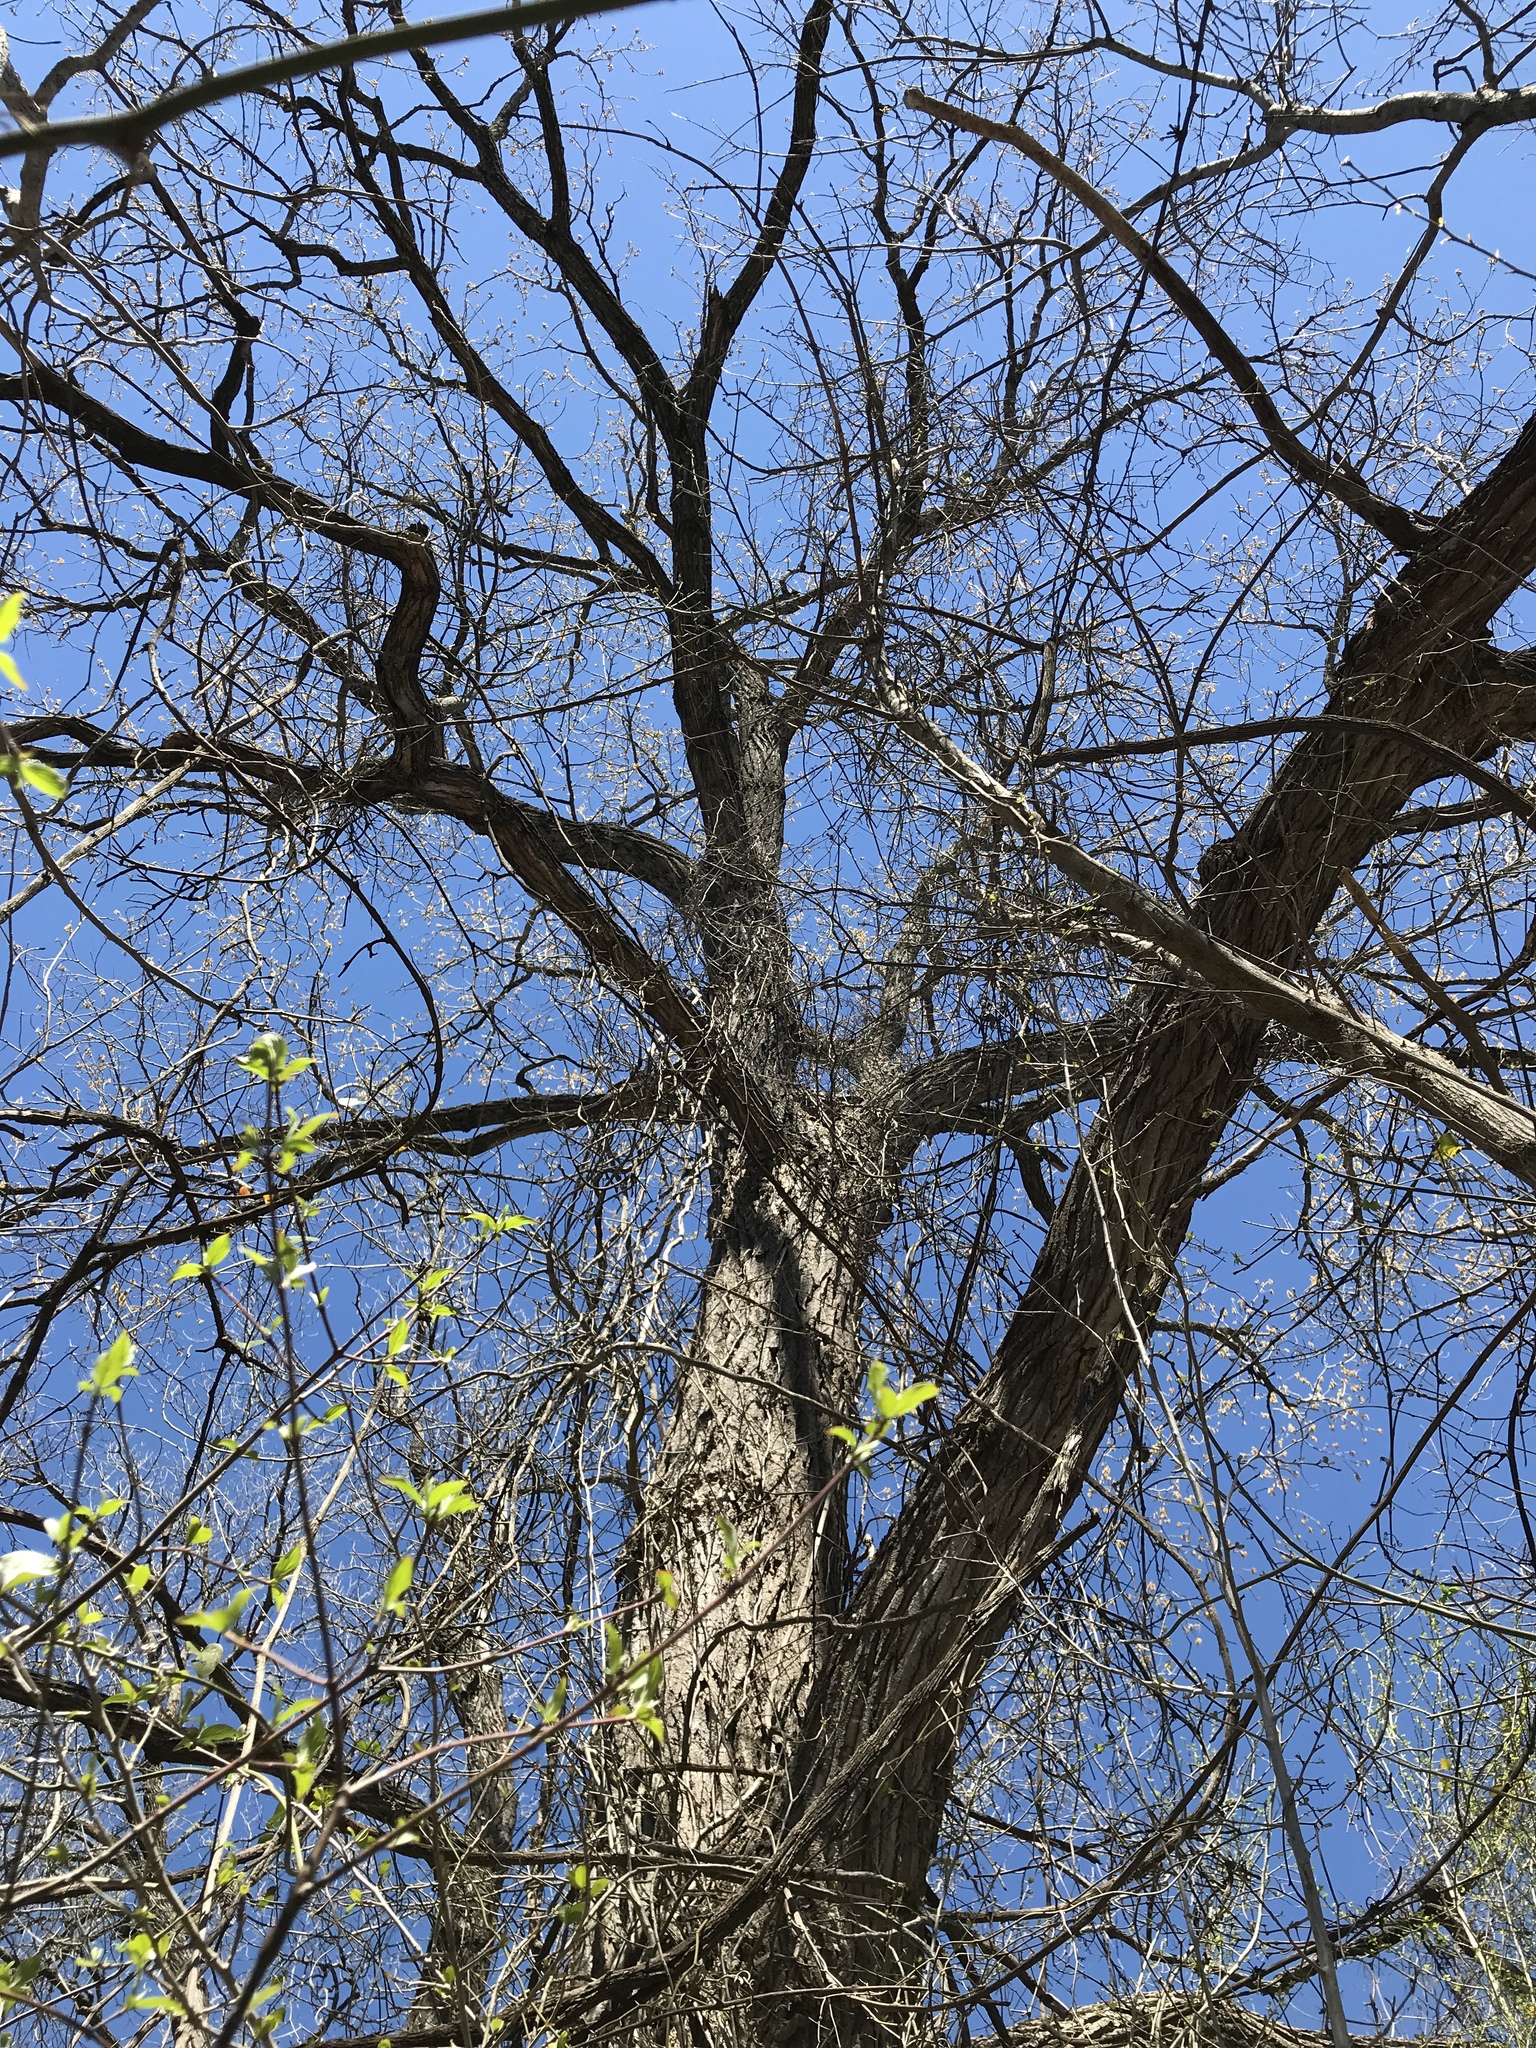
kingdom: Plantae
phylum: Tracheophyta
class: Magnoliopsida
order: Malpighiales
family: Salicaceae
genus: Populus
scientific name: Populus deltoides
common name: Eastern cottonwood
